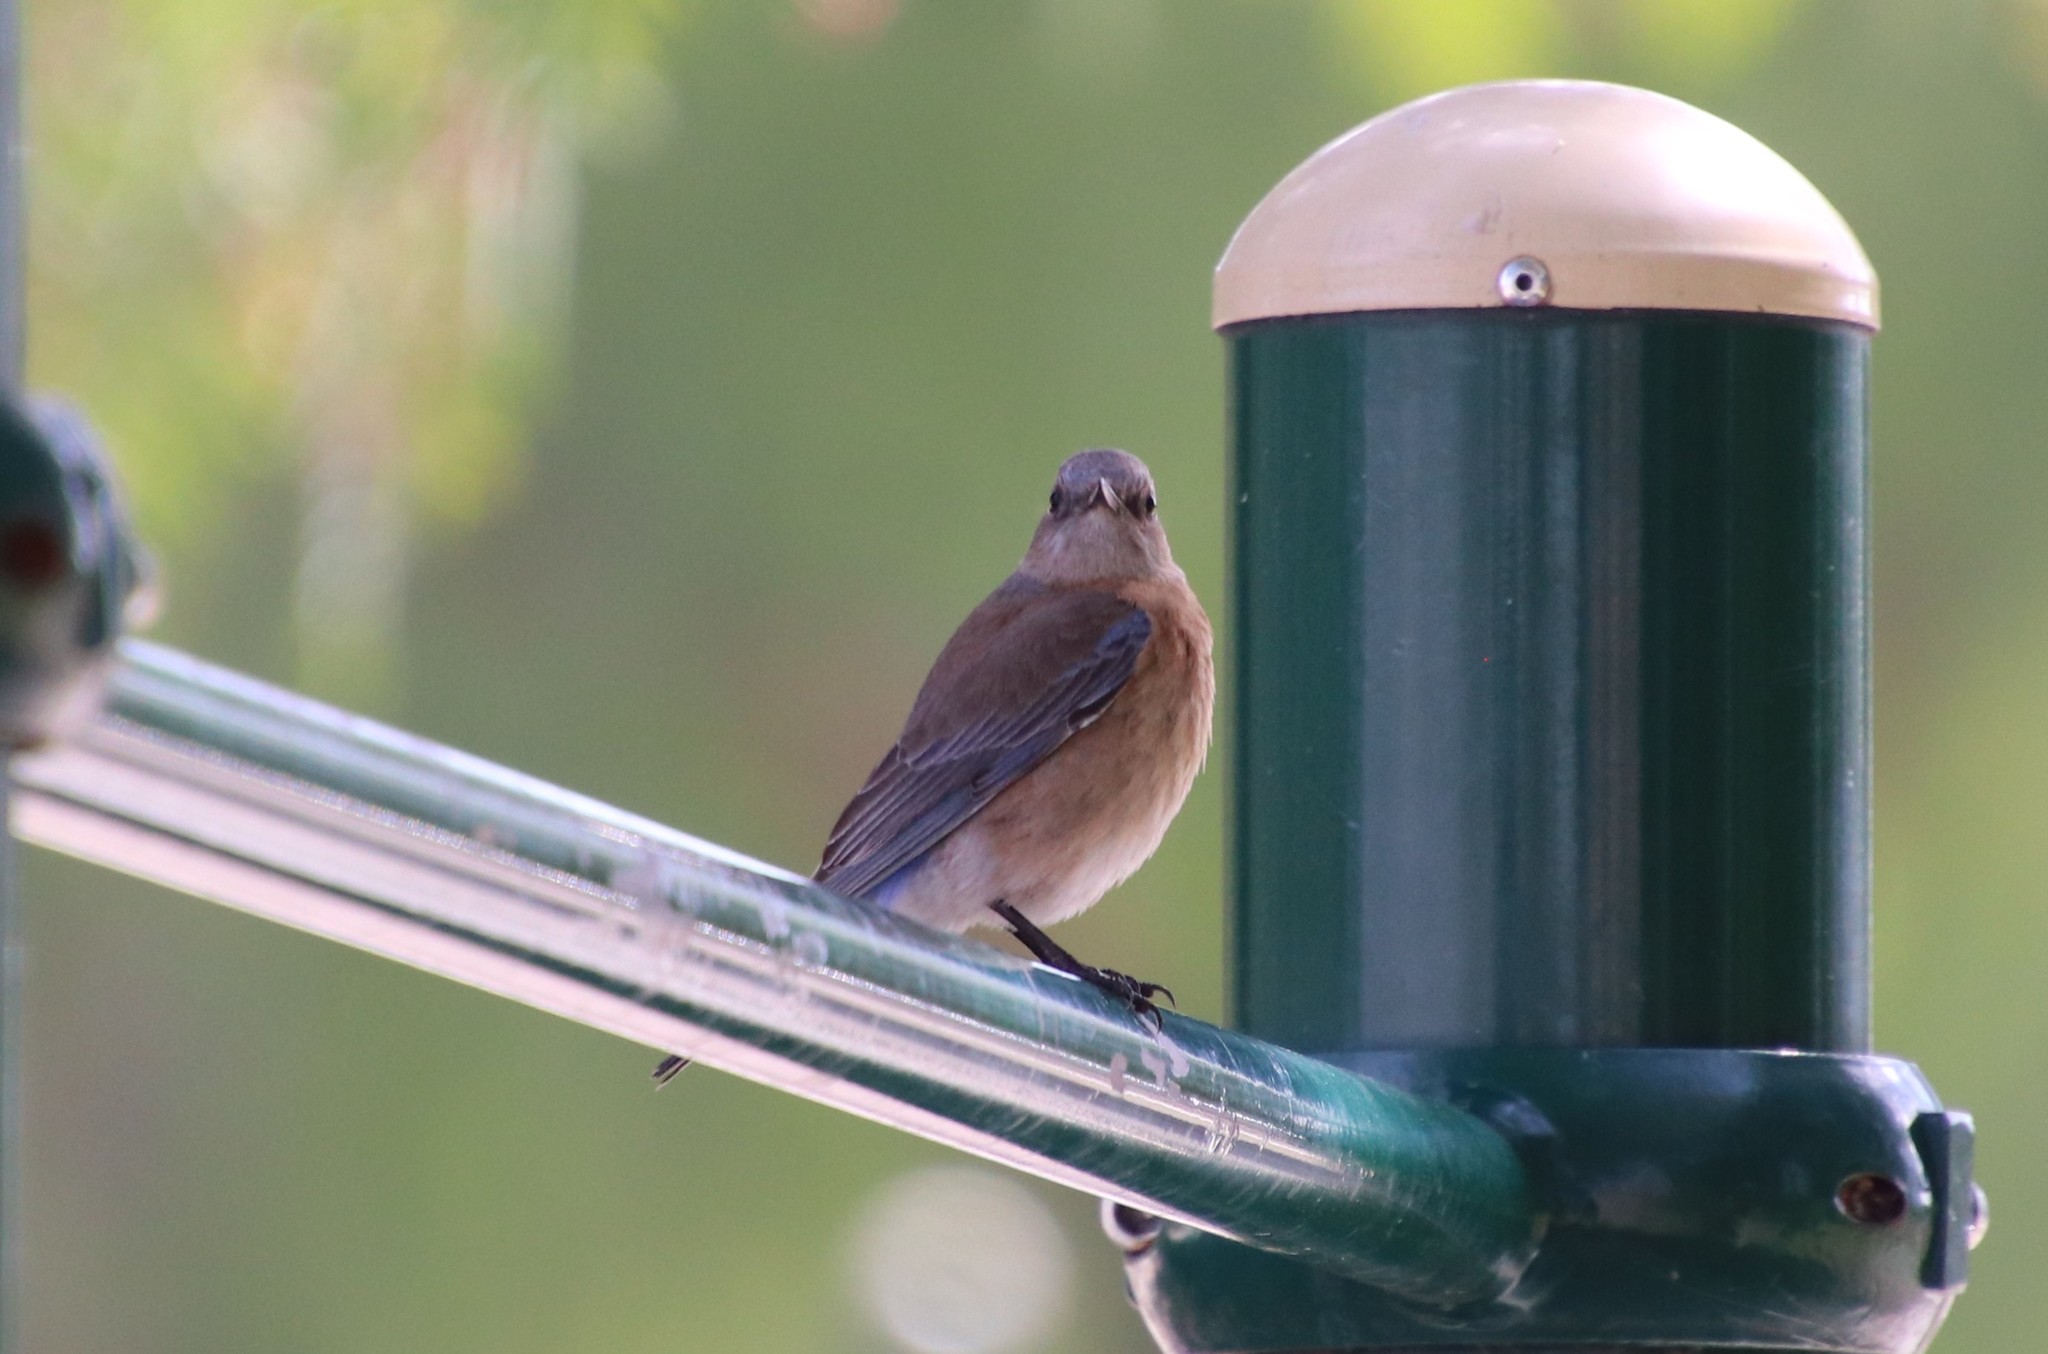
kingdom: Animalia
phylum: Chordata
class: Aves
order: Passeriformes
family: Turdidae
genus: Sialia
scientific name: Sialia mexicana
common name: Western bluebird
